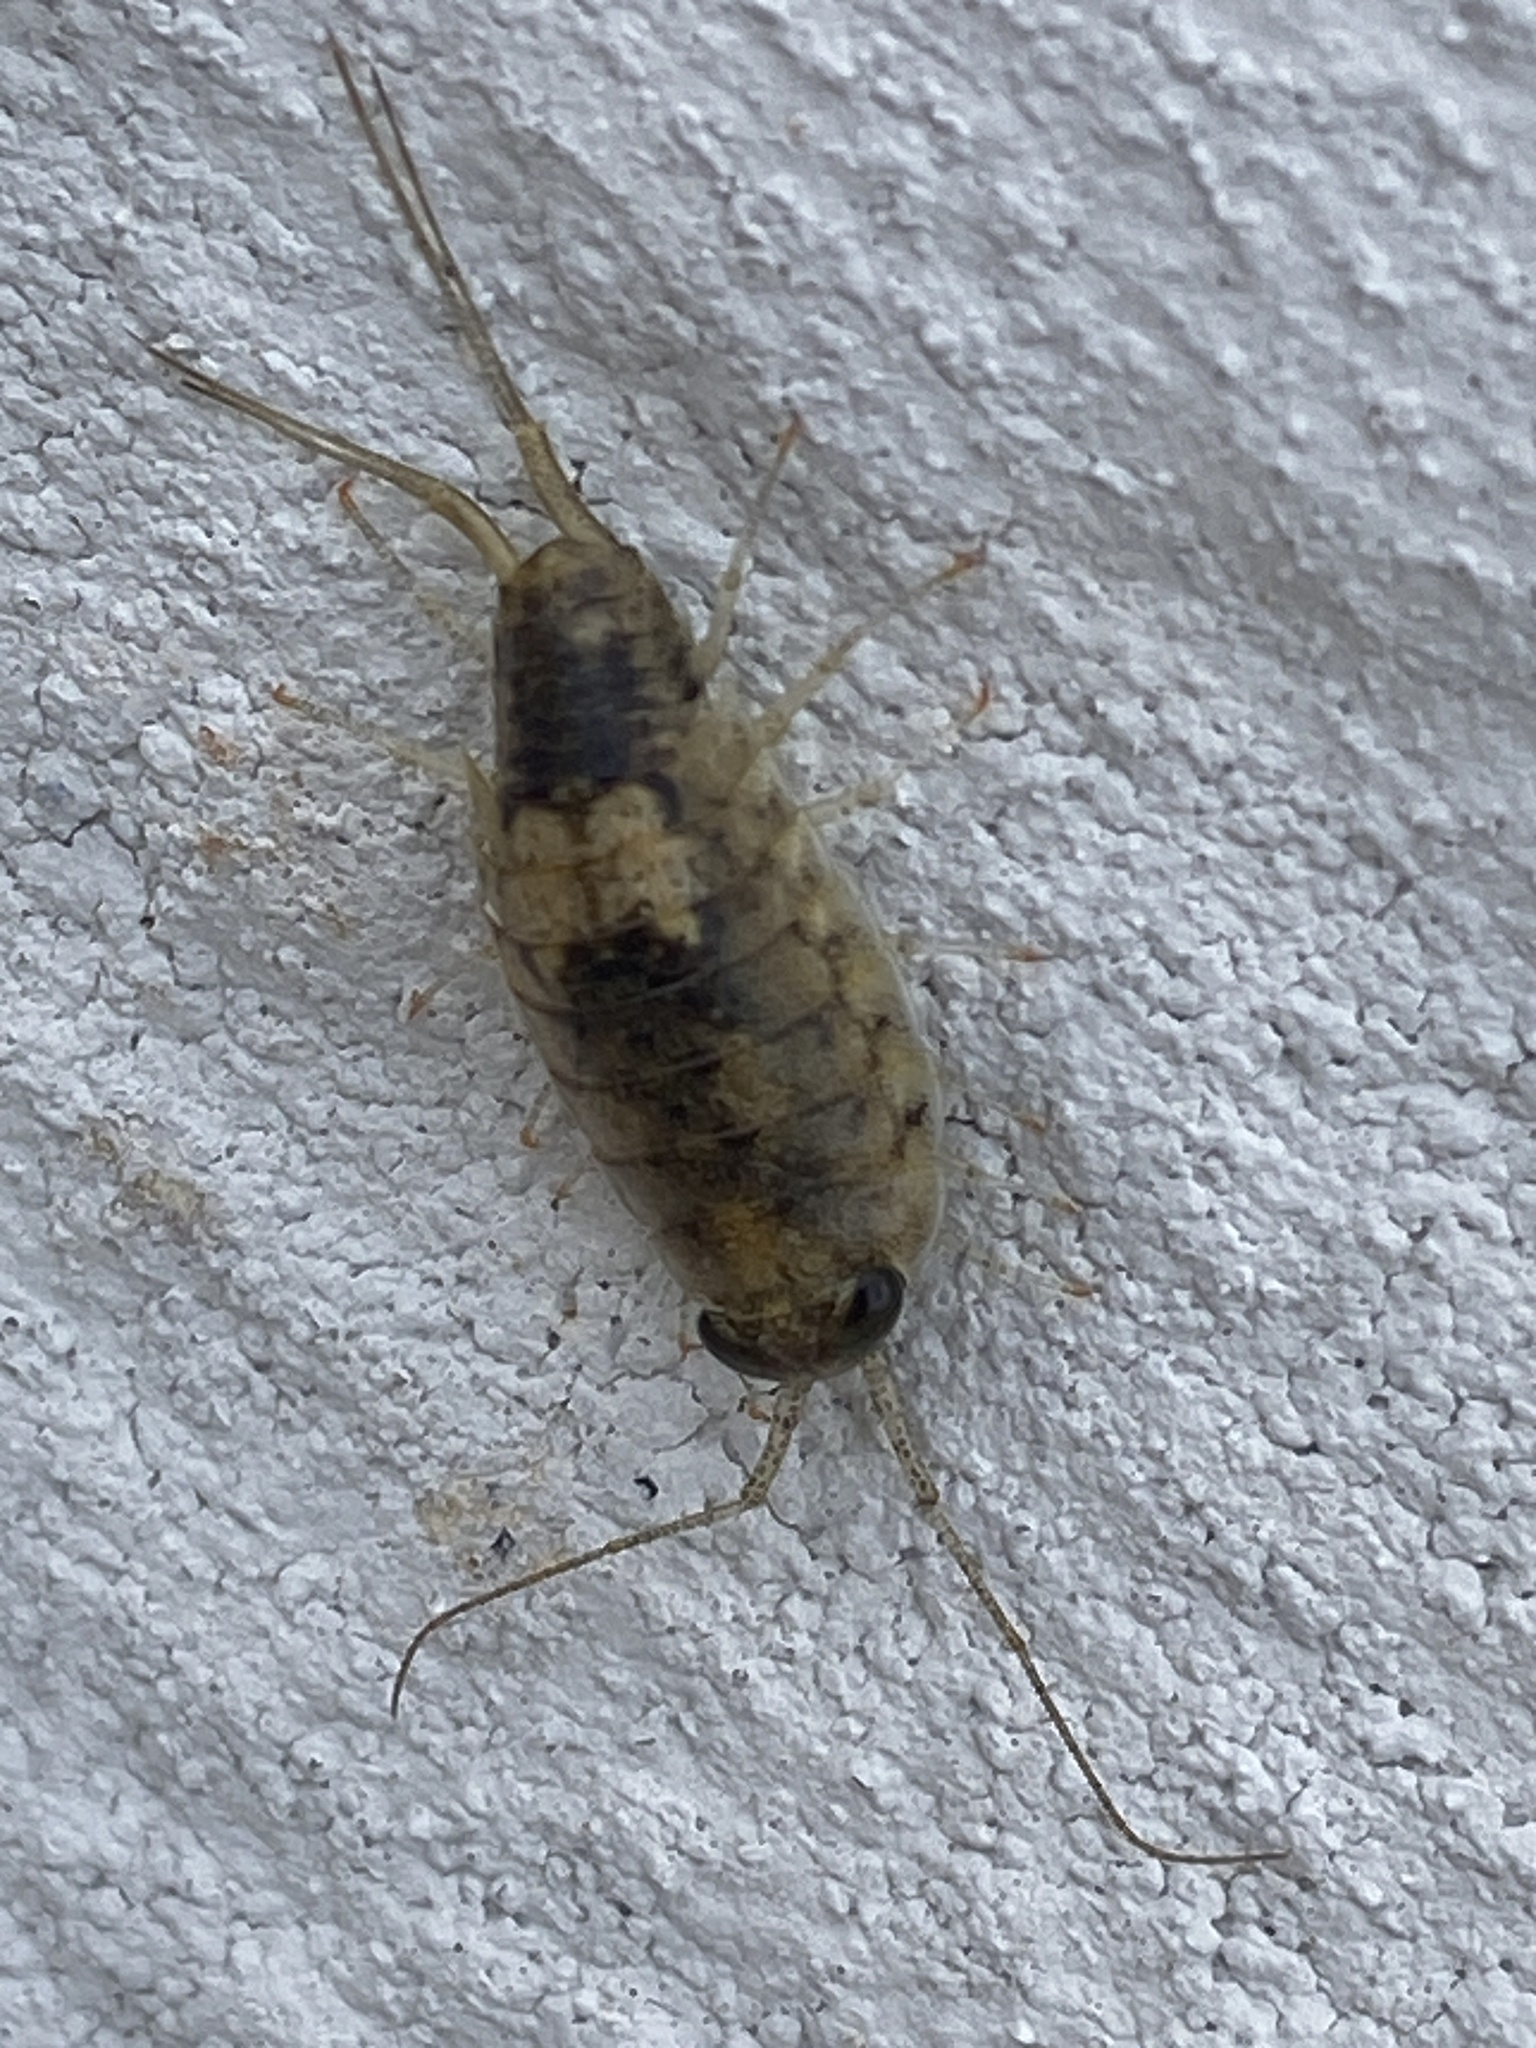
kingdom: Animalia
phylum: Arthropoda
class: Malacostraca
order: Isopoda
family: Ligiidae
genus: Ligia
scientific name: Ligia italica
